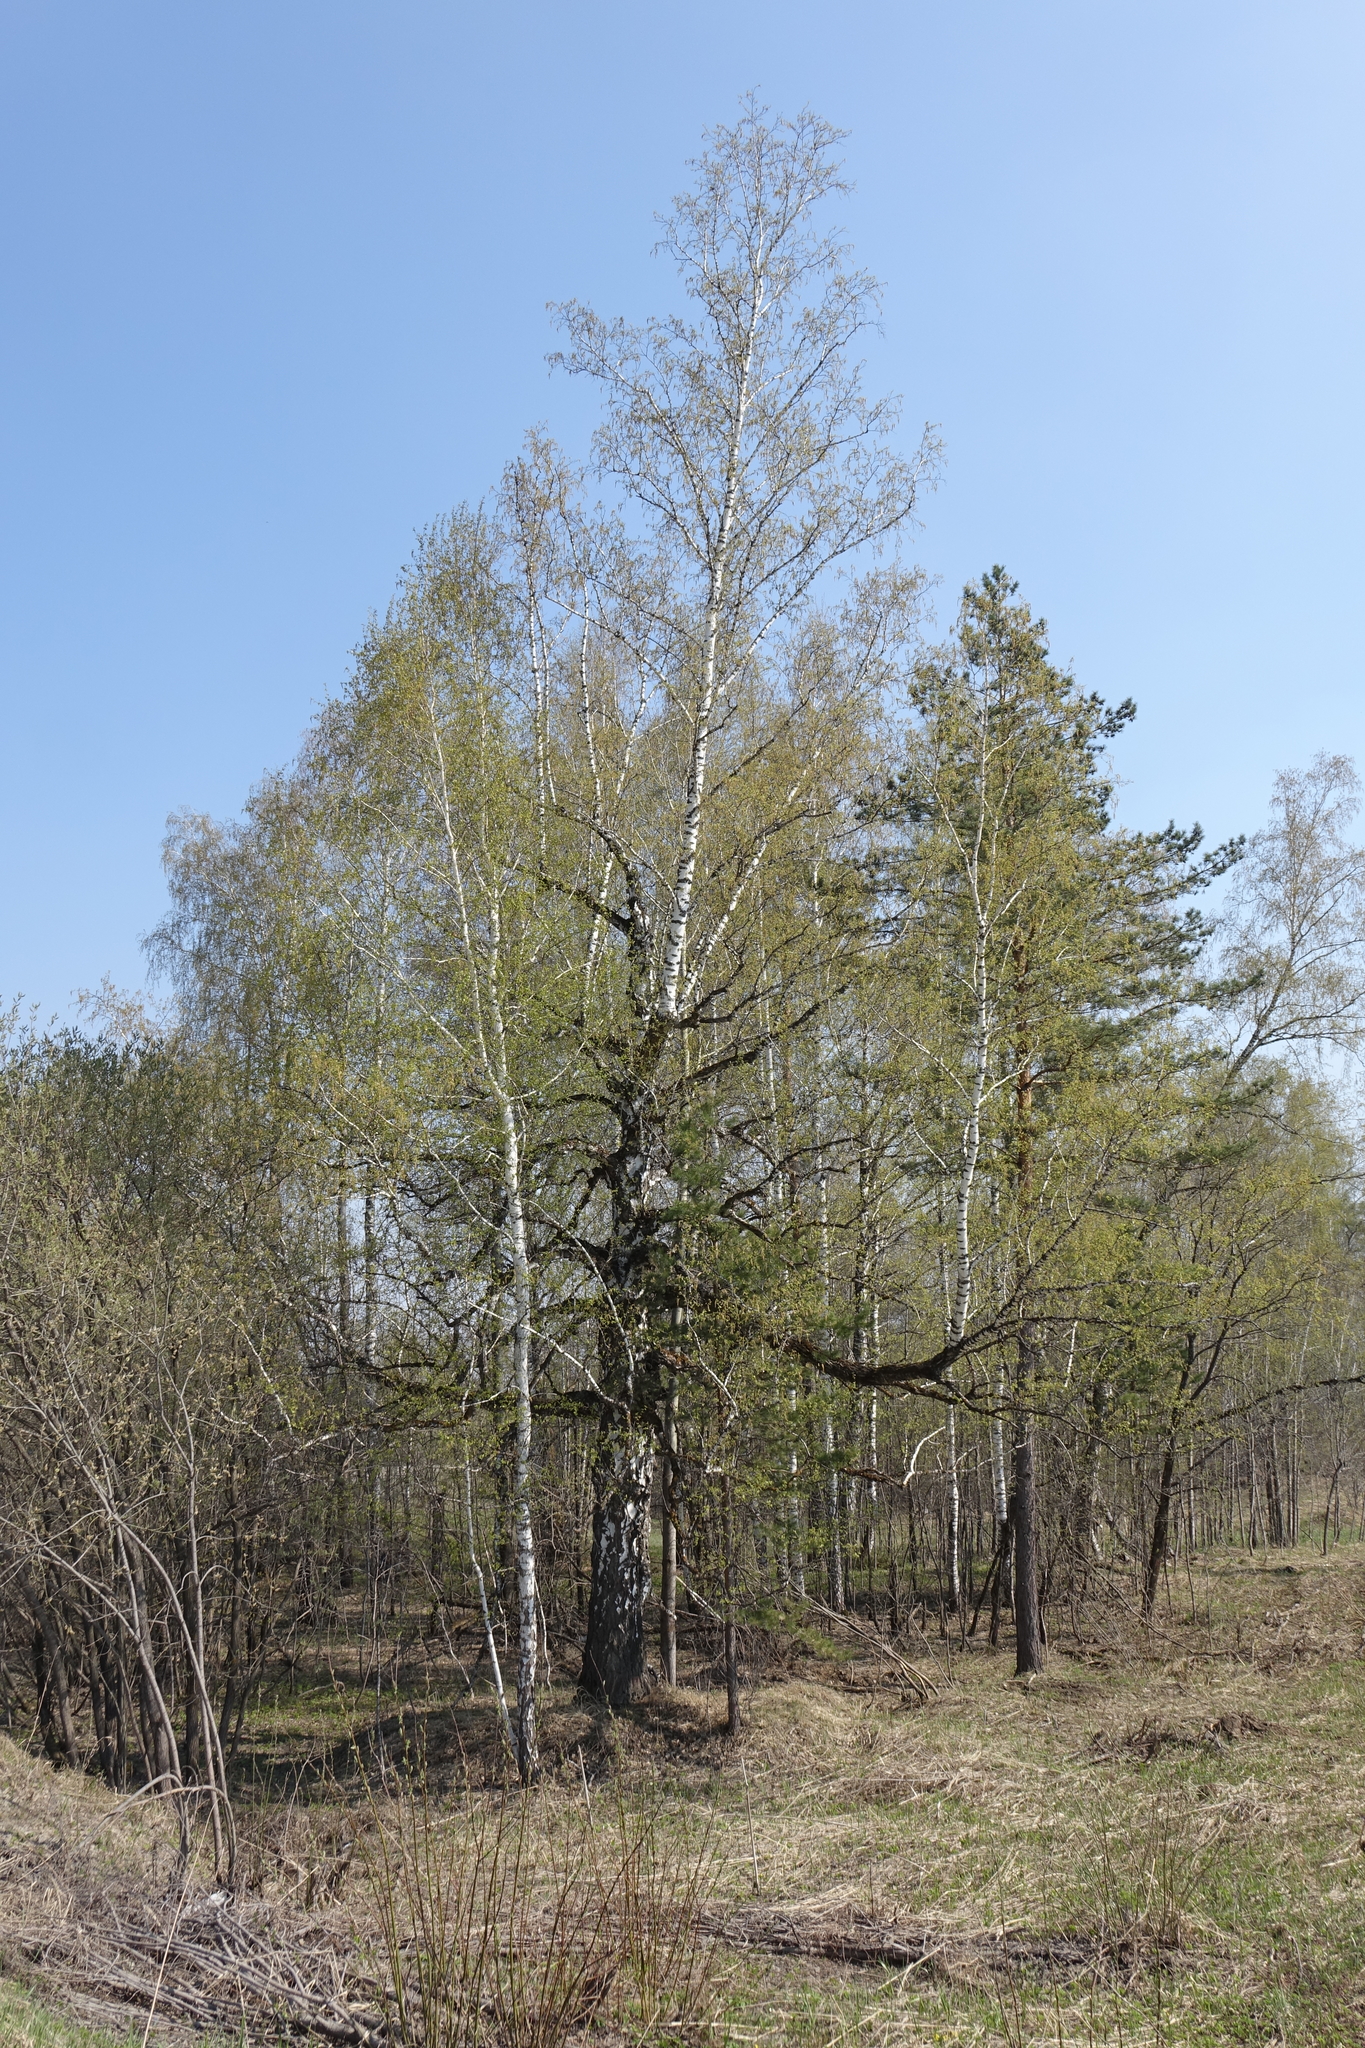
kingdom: Plantae
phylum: Tracheophyta
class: Magnoliopsida
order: Fagales
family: Betulaceae
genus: Betula
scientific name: Betula pendula
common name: Silver birch
